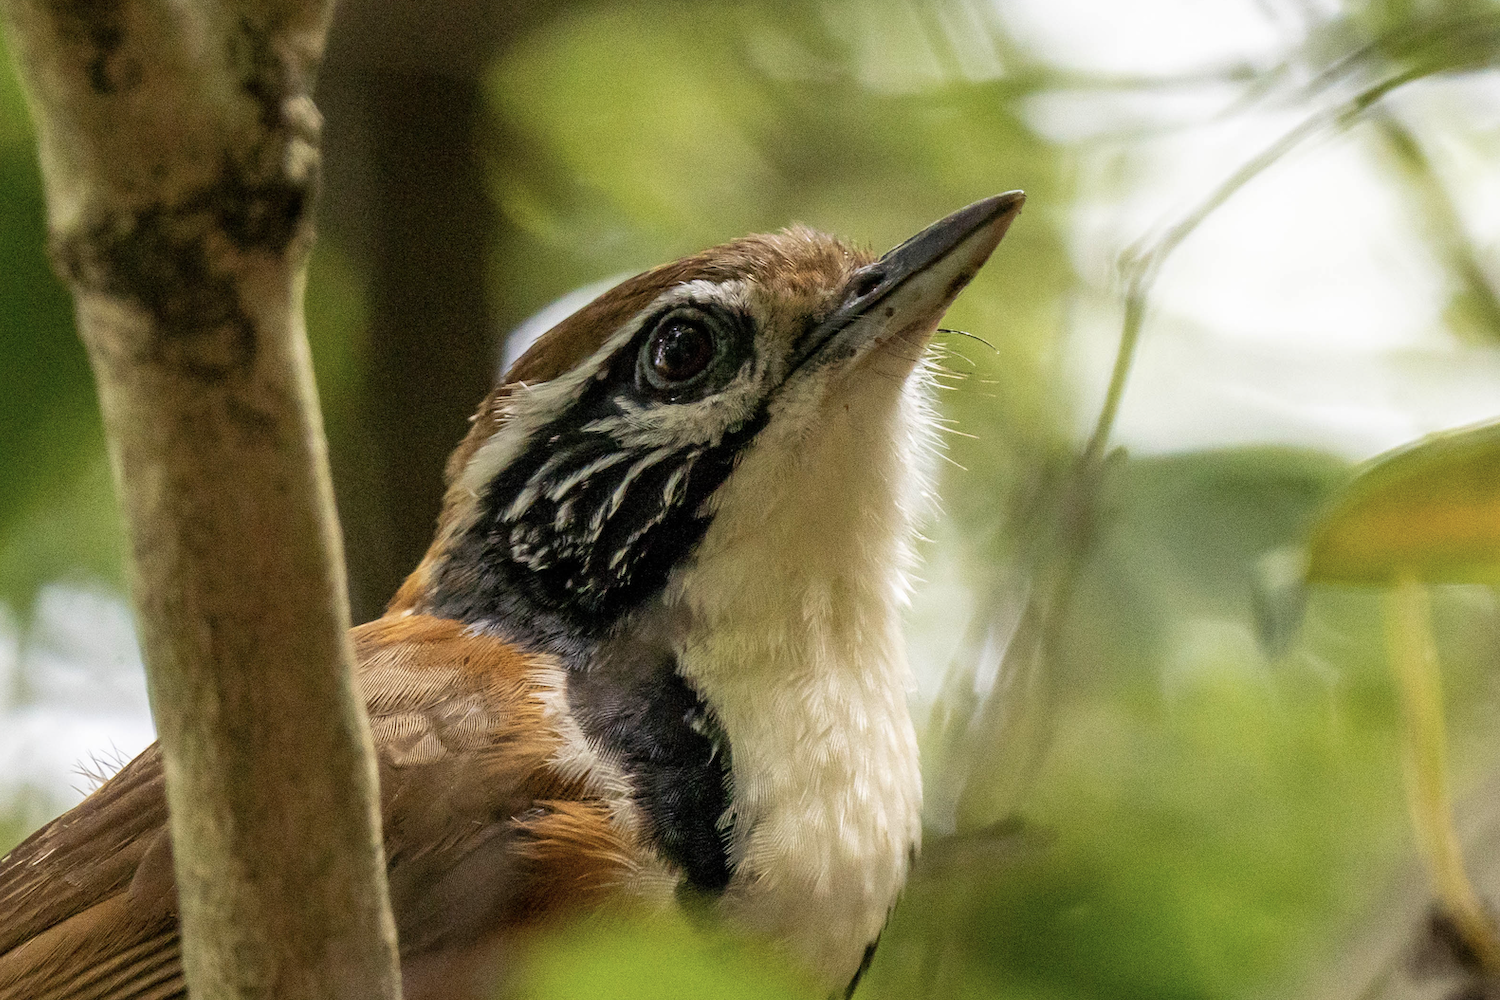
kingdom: Animalia
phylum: Chordata
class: Aves
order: Passeriformes
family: Leiothrichidae
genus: Garrulax
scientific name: Garrulax pectoralis
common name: Greater necklaced laughingthrush
